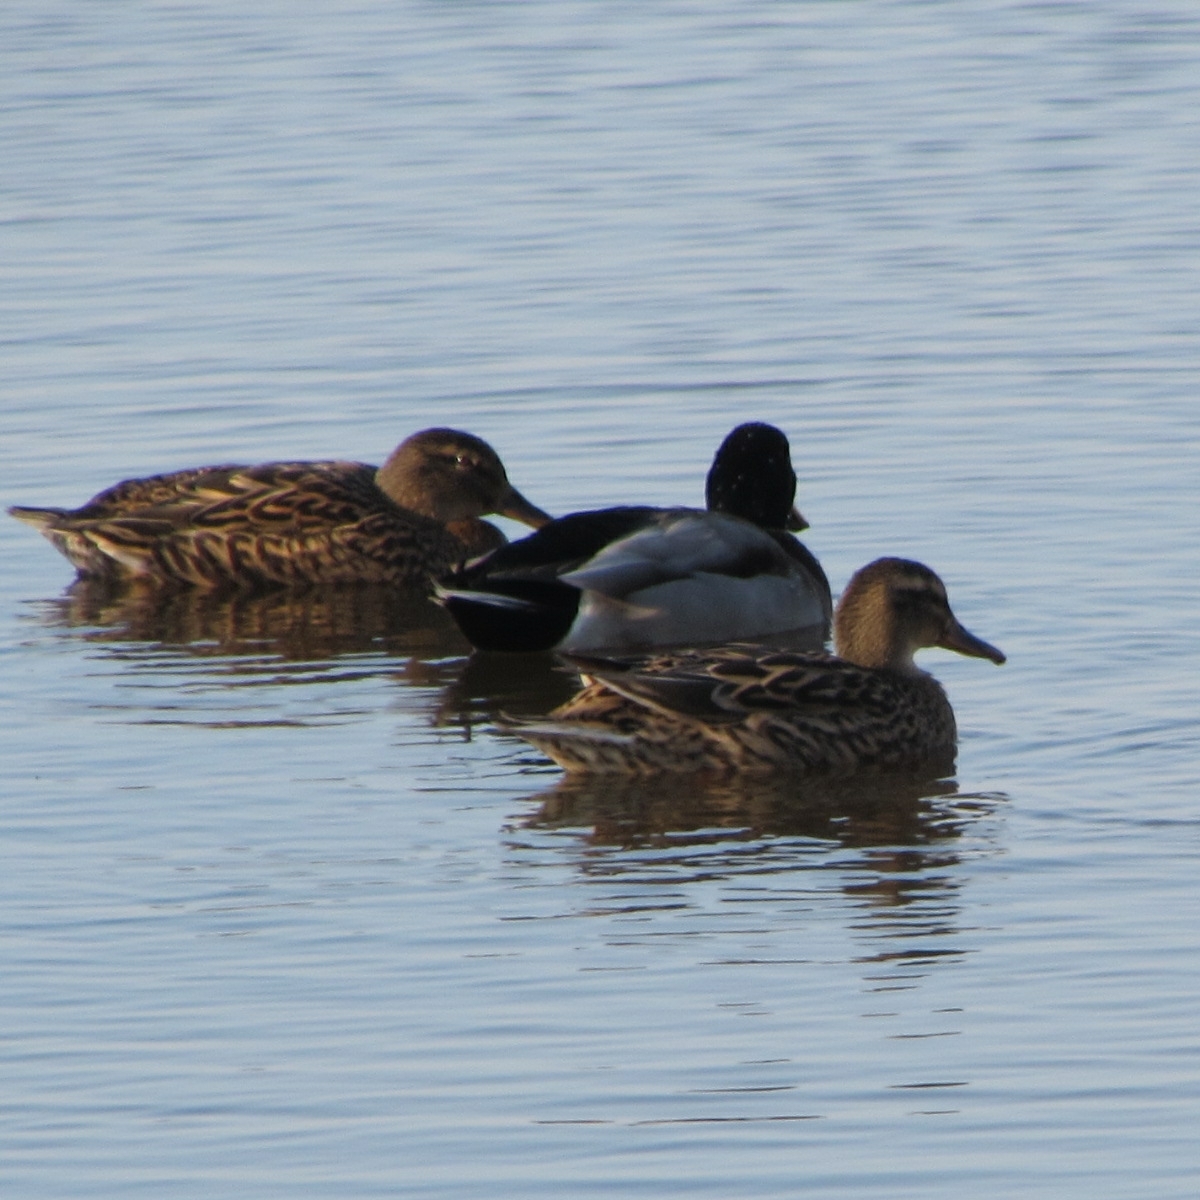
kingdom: Animalia
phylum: Chordata
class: Aves
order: Anseriformes
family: Anatidae
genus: Anas
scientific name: Anas platyrhynchos
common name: Mallard
